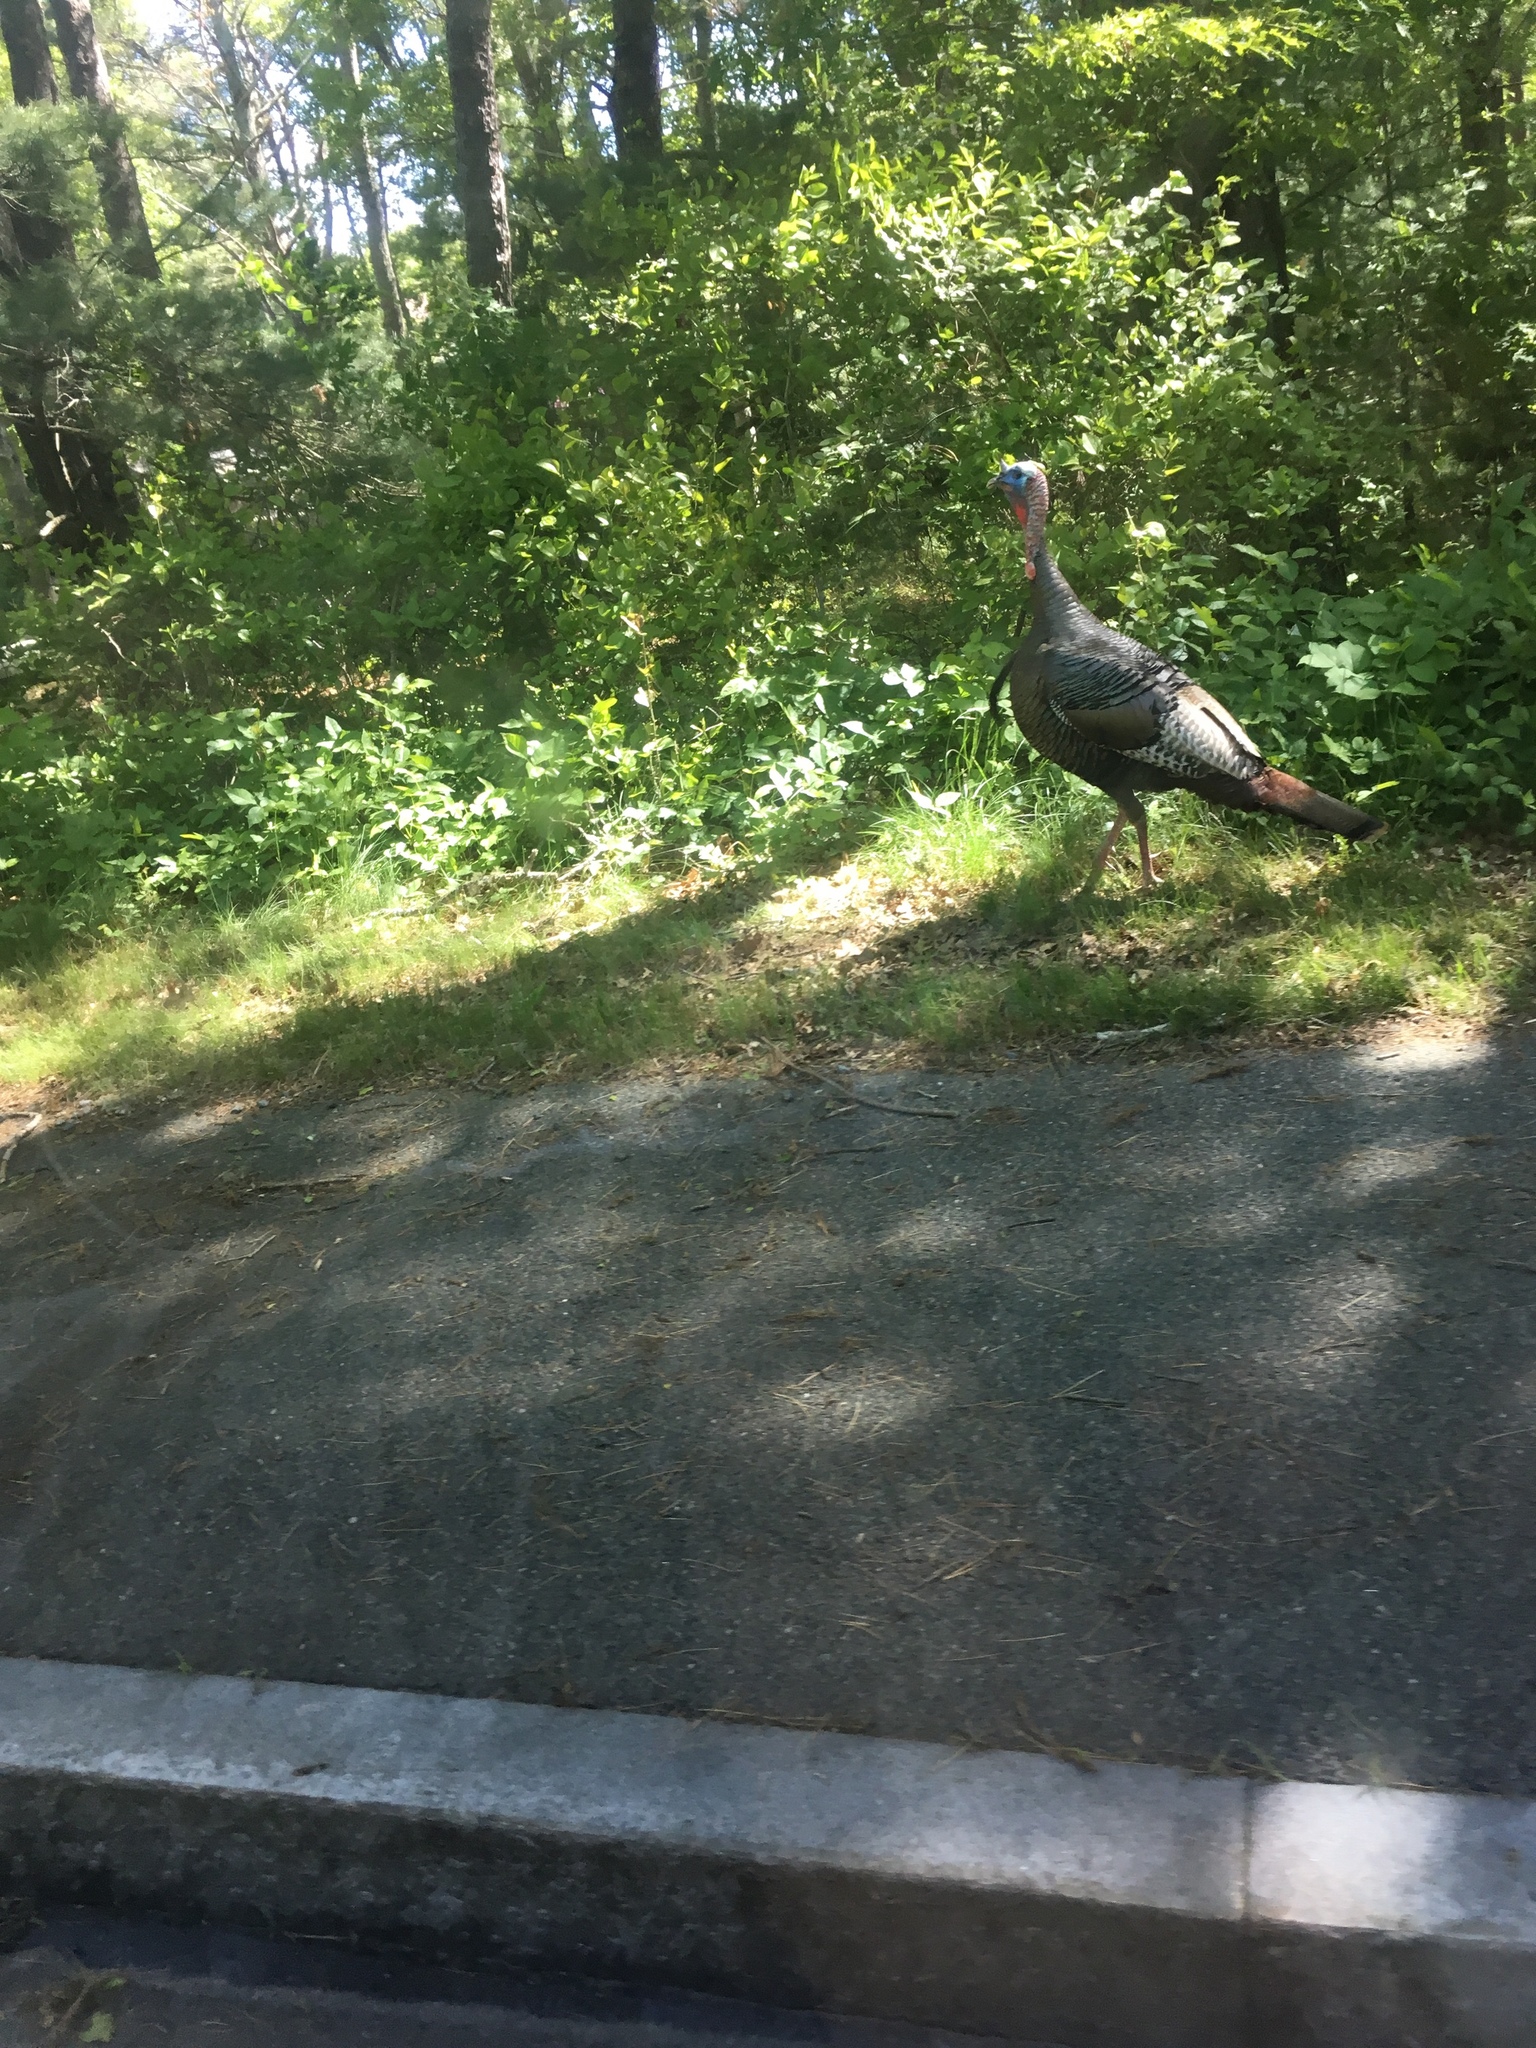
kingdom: Animalia
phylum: Chordata
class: Aves
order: Galliformes
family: Phasianidae
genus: Meleagris
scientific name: Meleagris gallopavo
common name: Wild turkey
